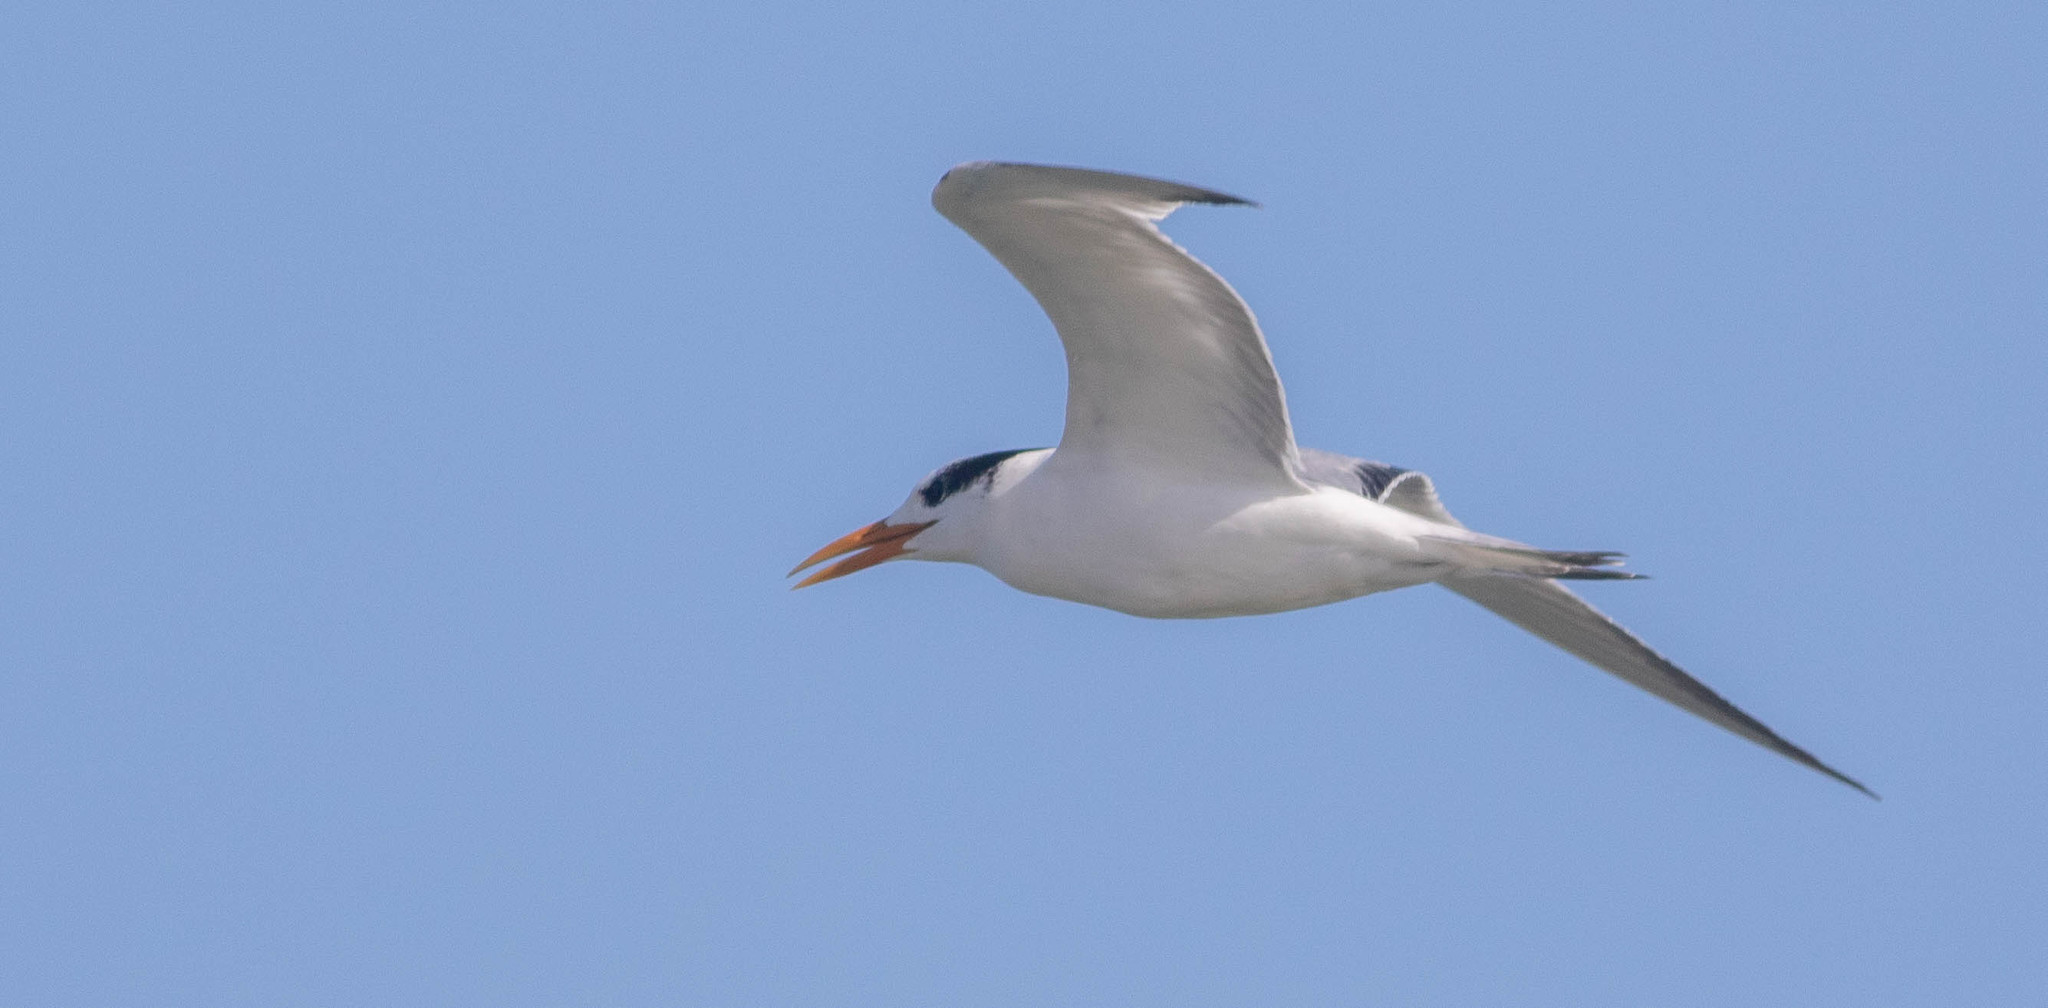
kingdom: Animalia
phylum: Chordata
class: Aves
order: Charadriiformes
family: Laridae
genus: Thalasseus
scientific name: Thalasseus maximus
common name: Royal tern
